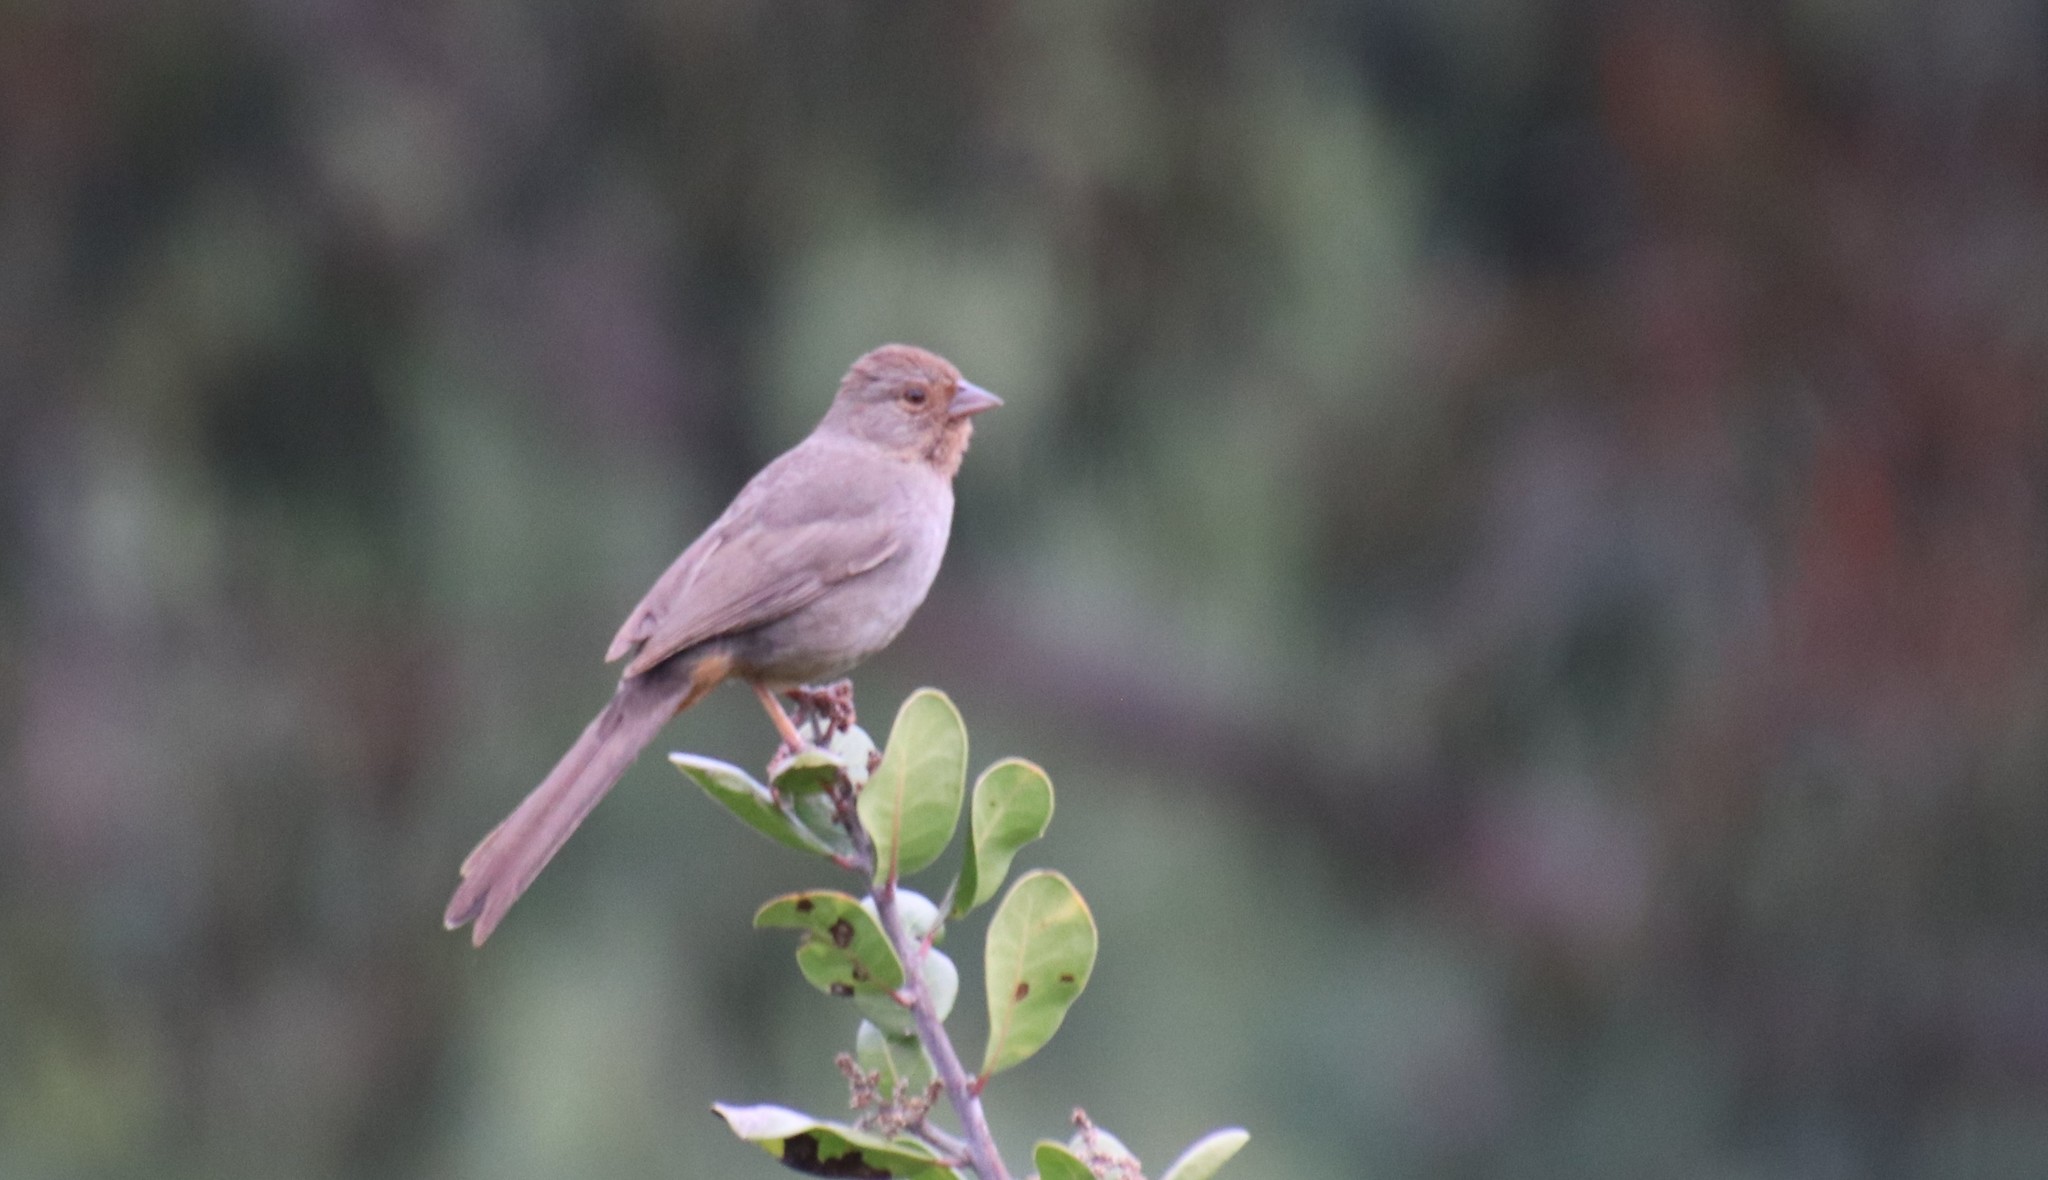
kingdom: Animalia
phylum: Chordata
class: Aves
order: Passeriformes
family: Passerellidae
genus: Melozone
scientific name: Melozone crissalis
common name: California towhee
